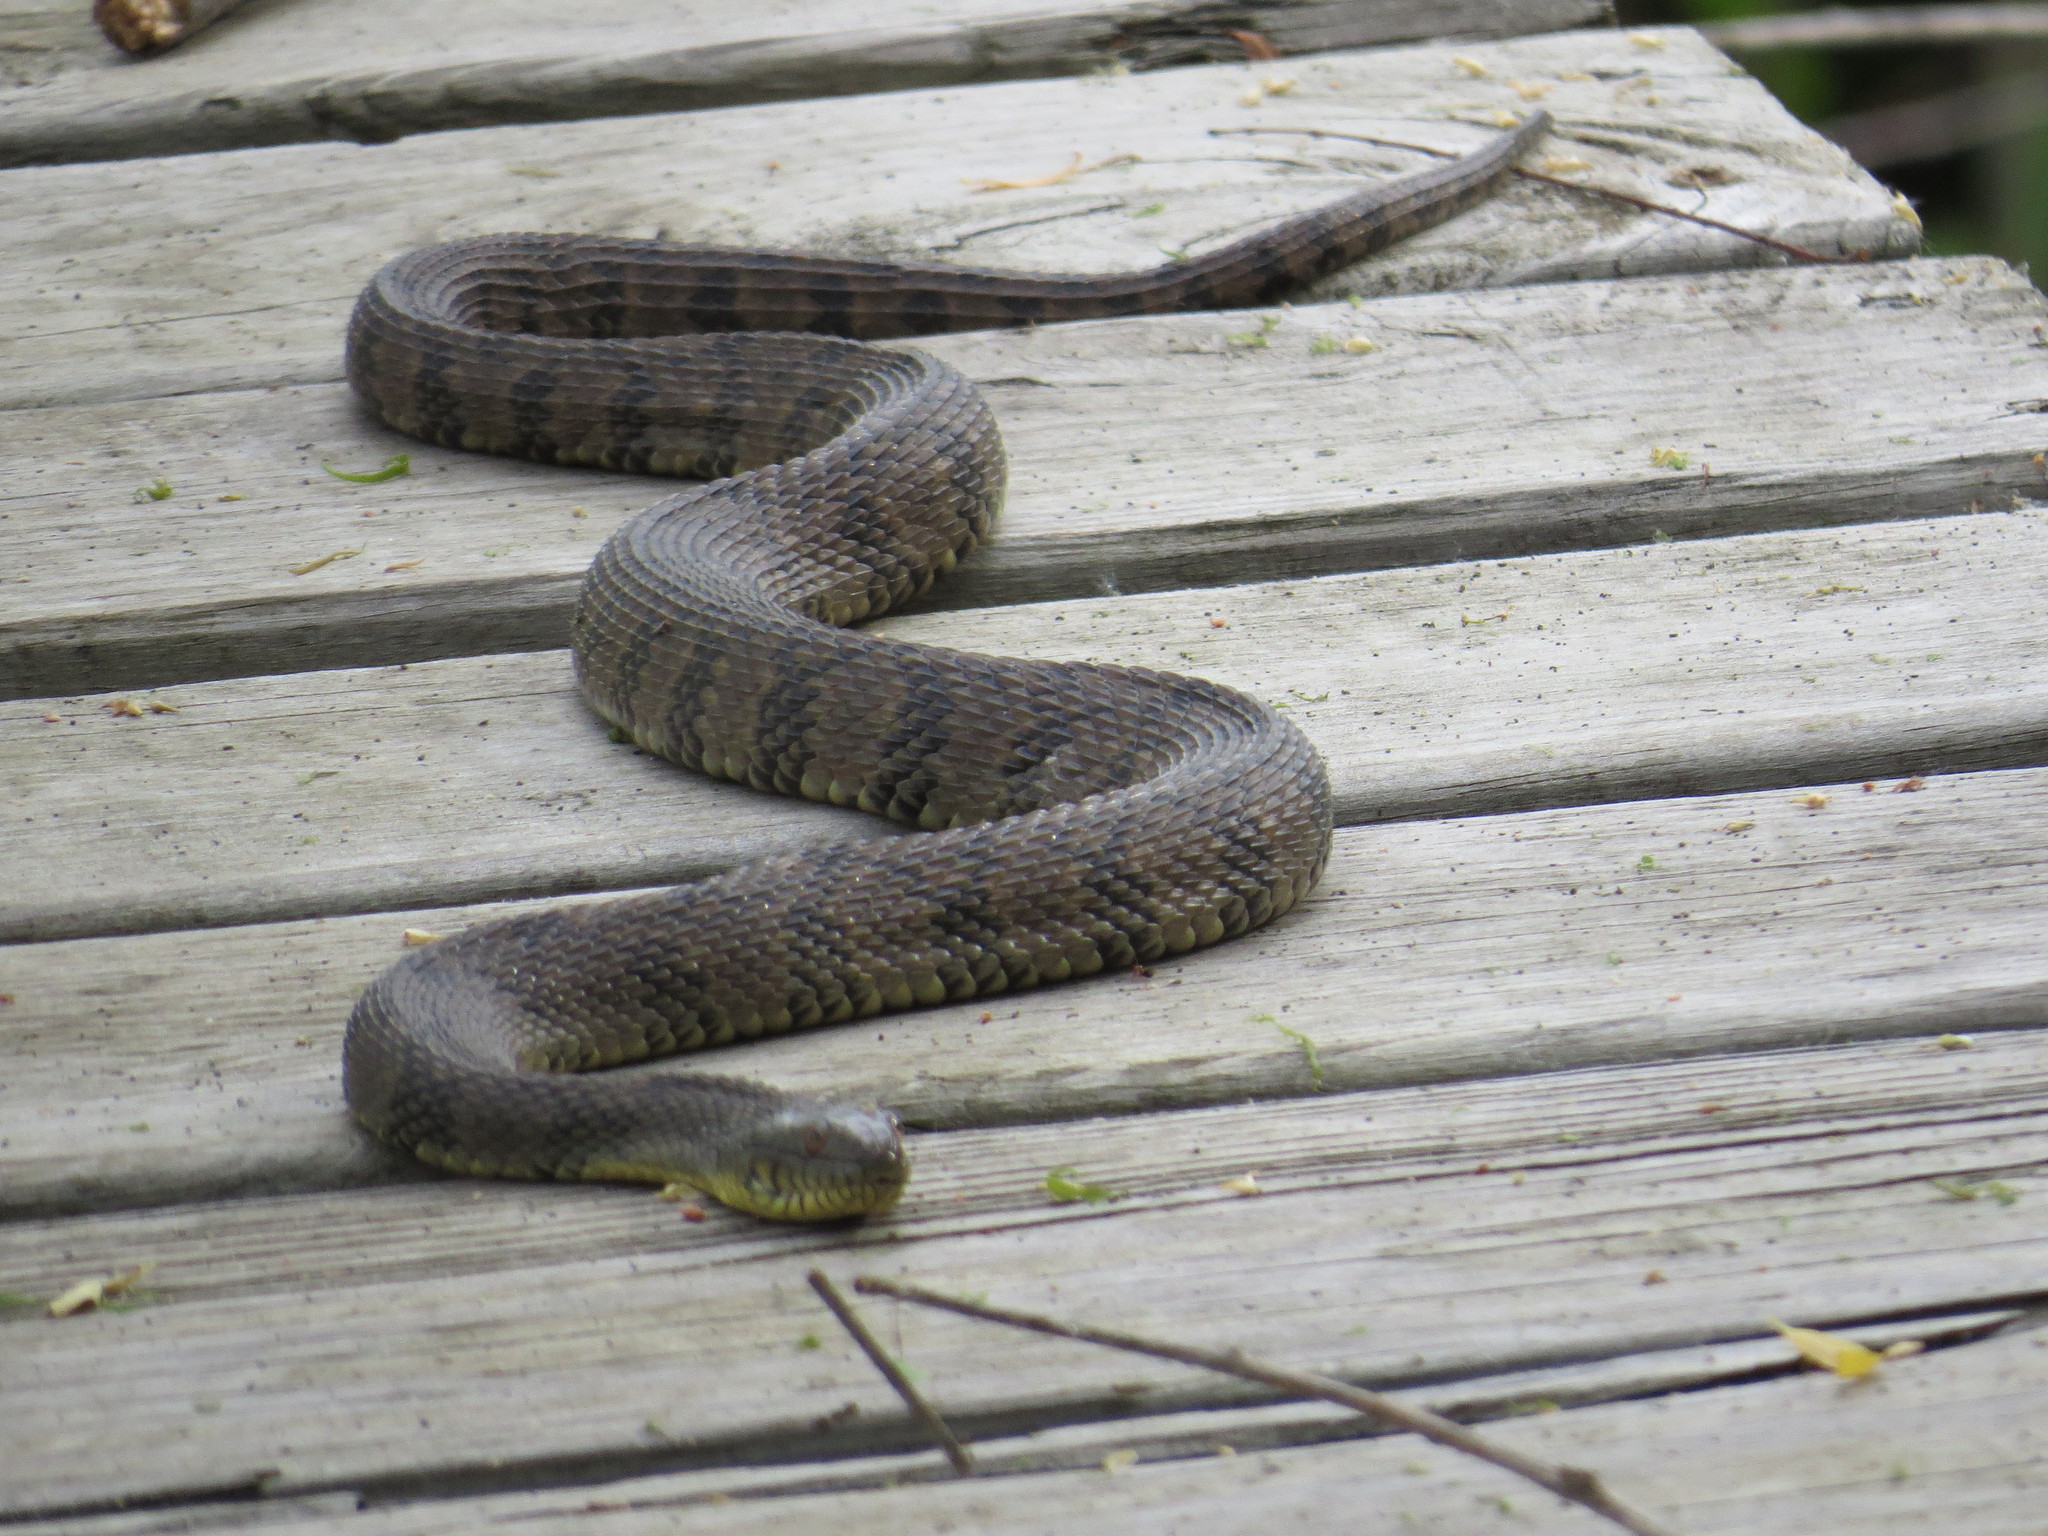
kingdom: Animalia
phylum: Chordata
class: Squamata
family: Colubridae
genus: Nerodia
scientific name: Nerodia rhombifer
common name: Diamondback water snake
